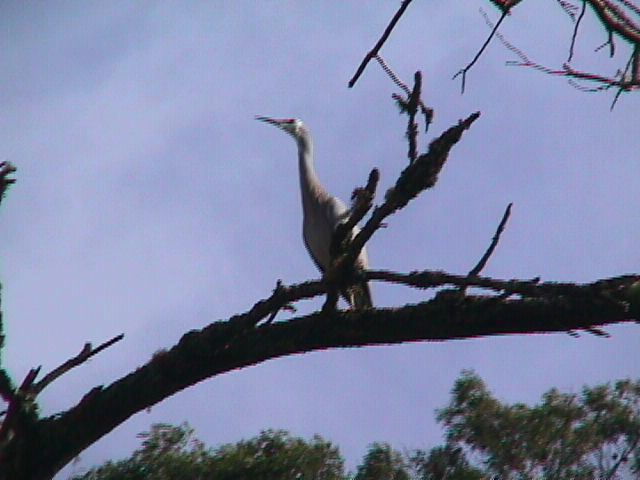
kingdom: Animalia
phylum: Chordata
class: Aves
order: Pelecaniformes
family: Ardeidae
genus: Egretta
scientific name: Egretta novaehollandiae
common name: White-faced heron
